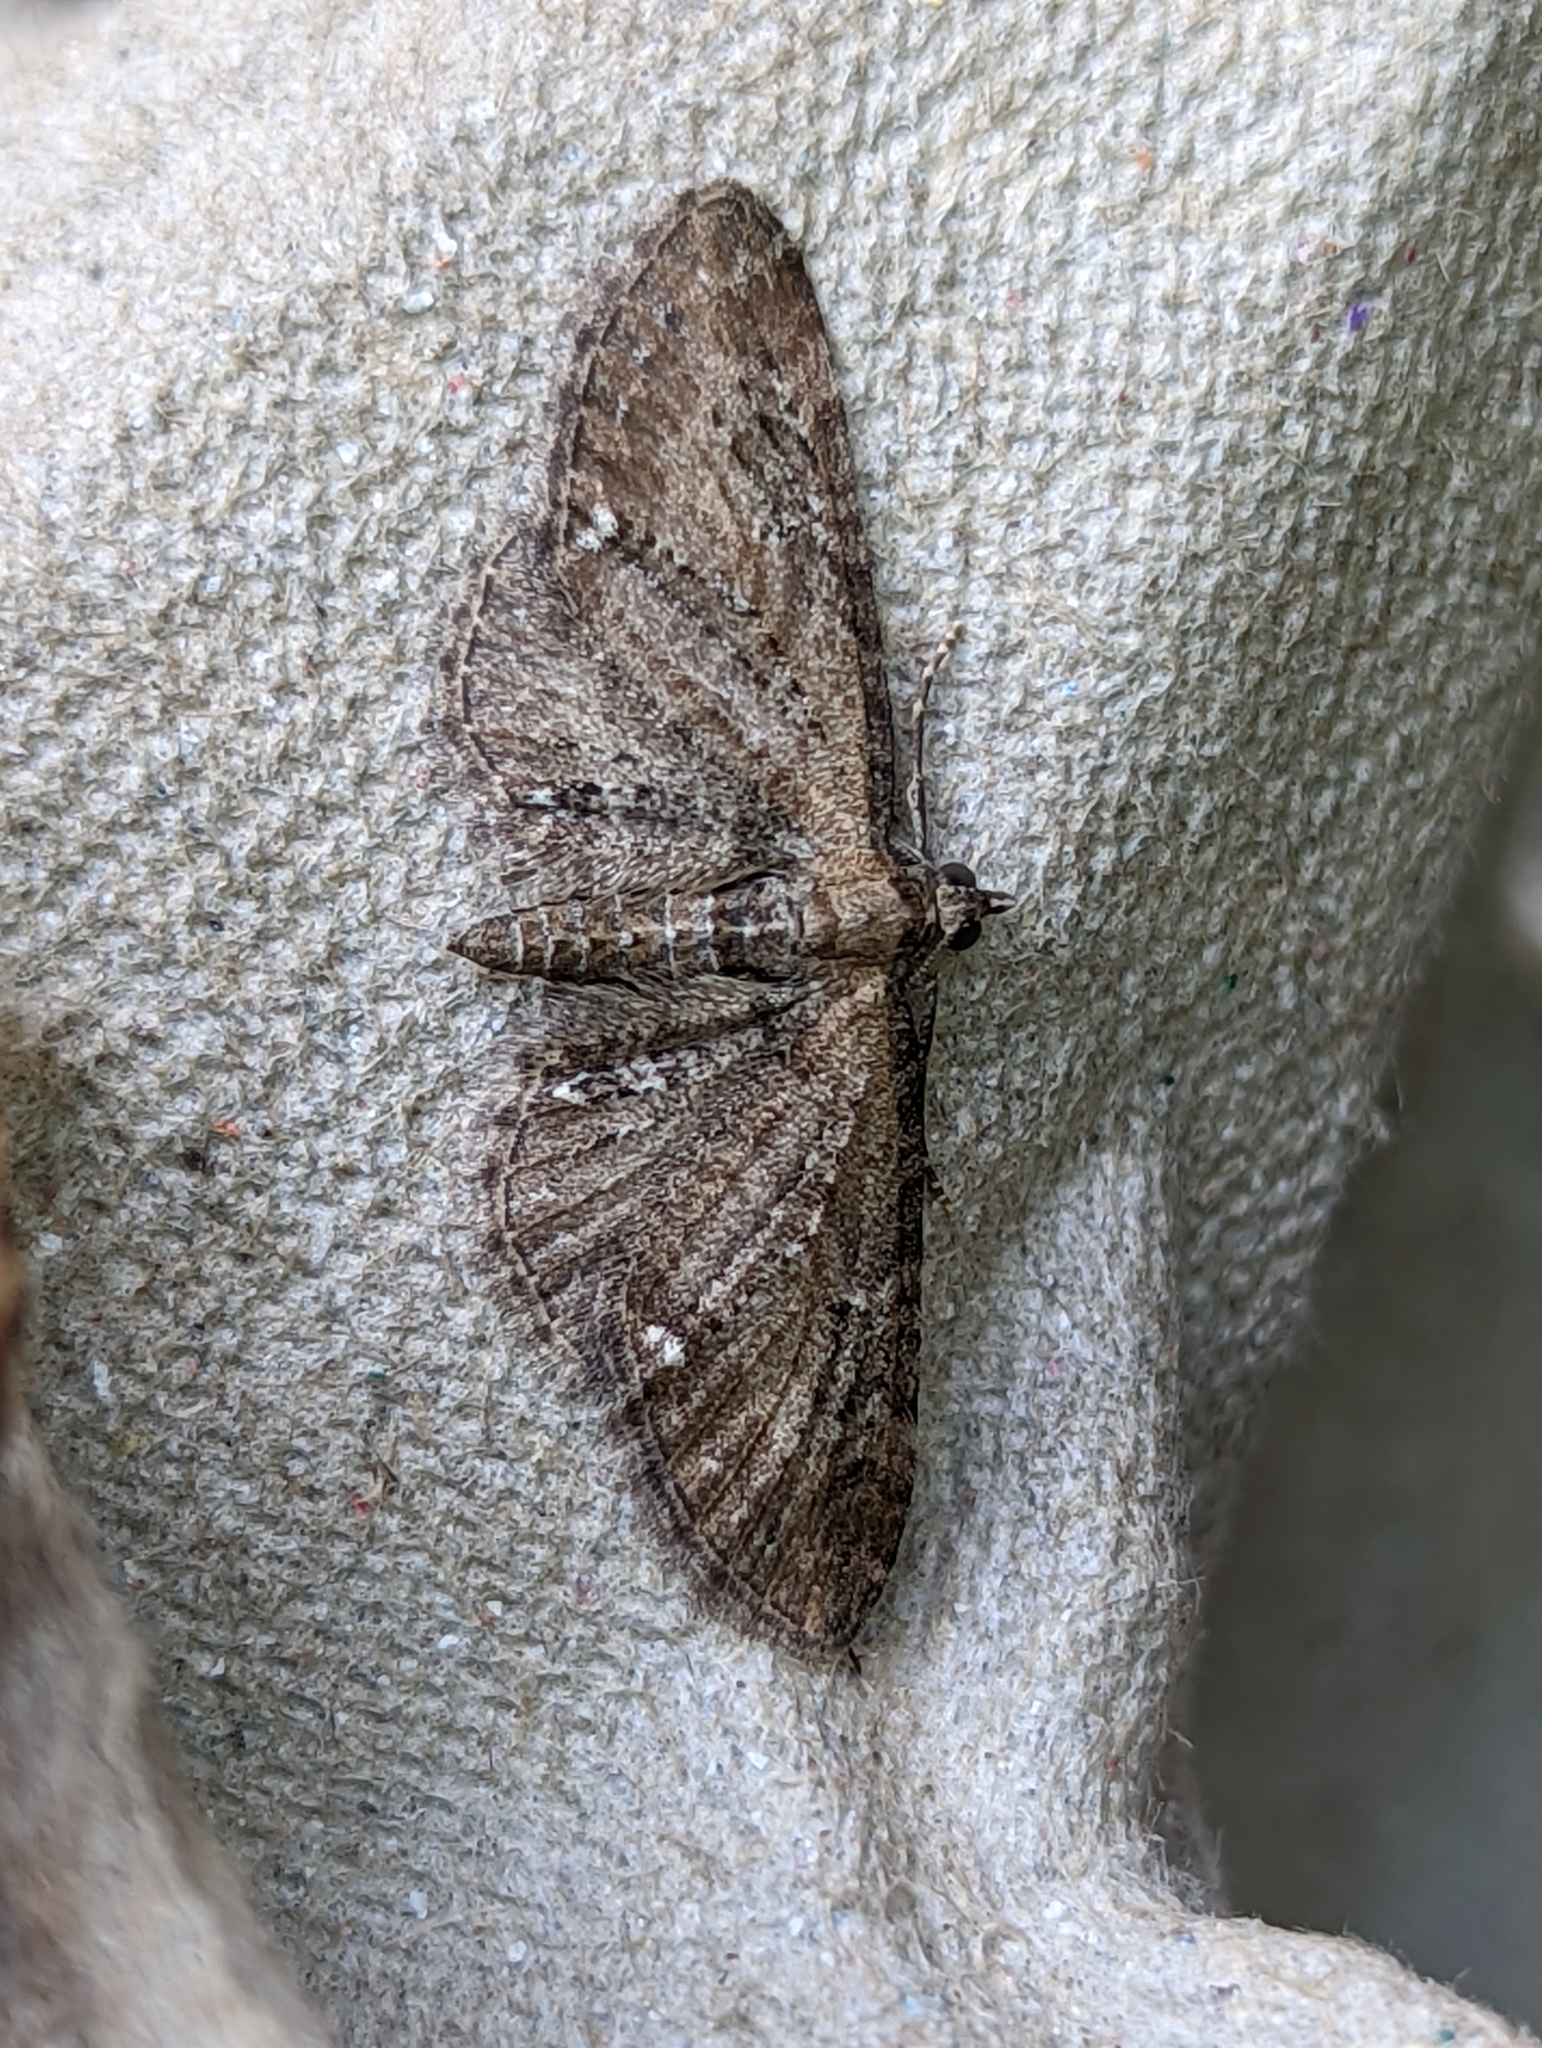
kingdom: Animalia
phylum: Arthropoda
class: Insecta
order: Lepidoptera
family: Geometridae
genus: Eupithecia
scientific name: Eupithecia vulgata
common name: Common pug
